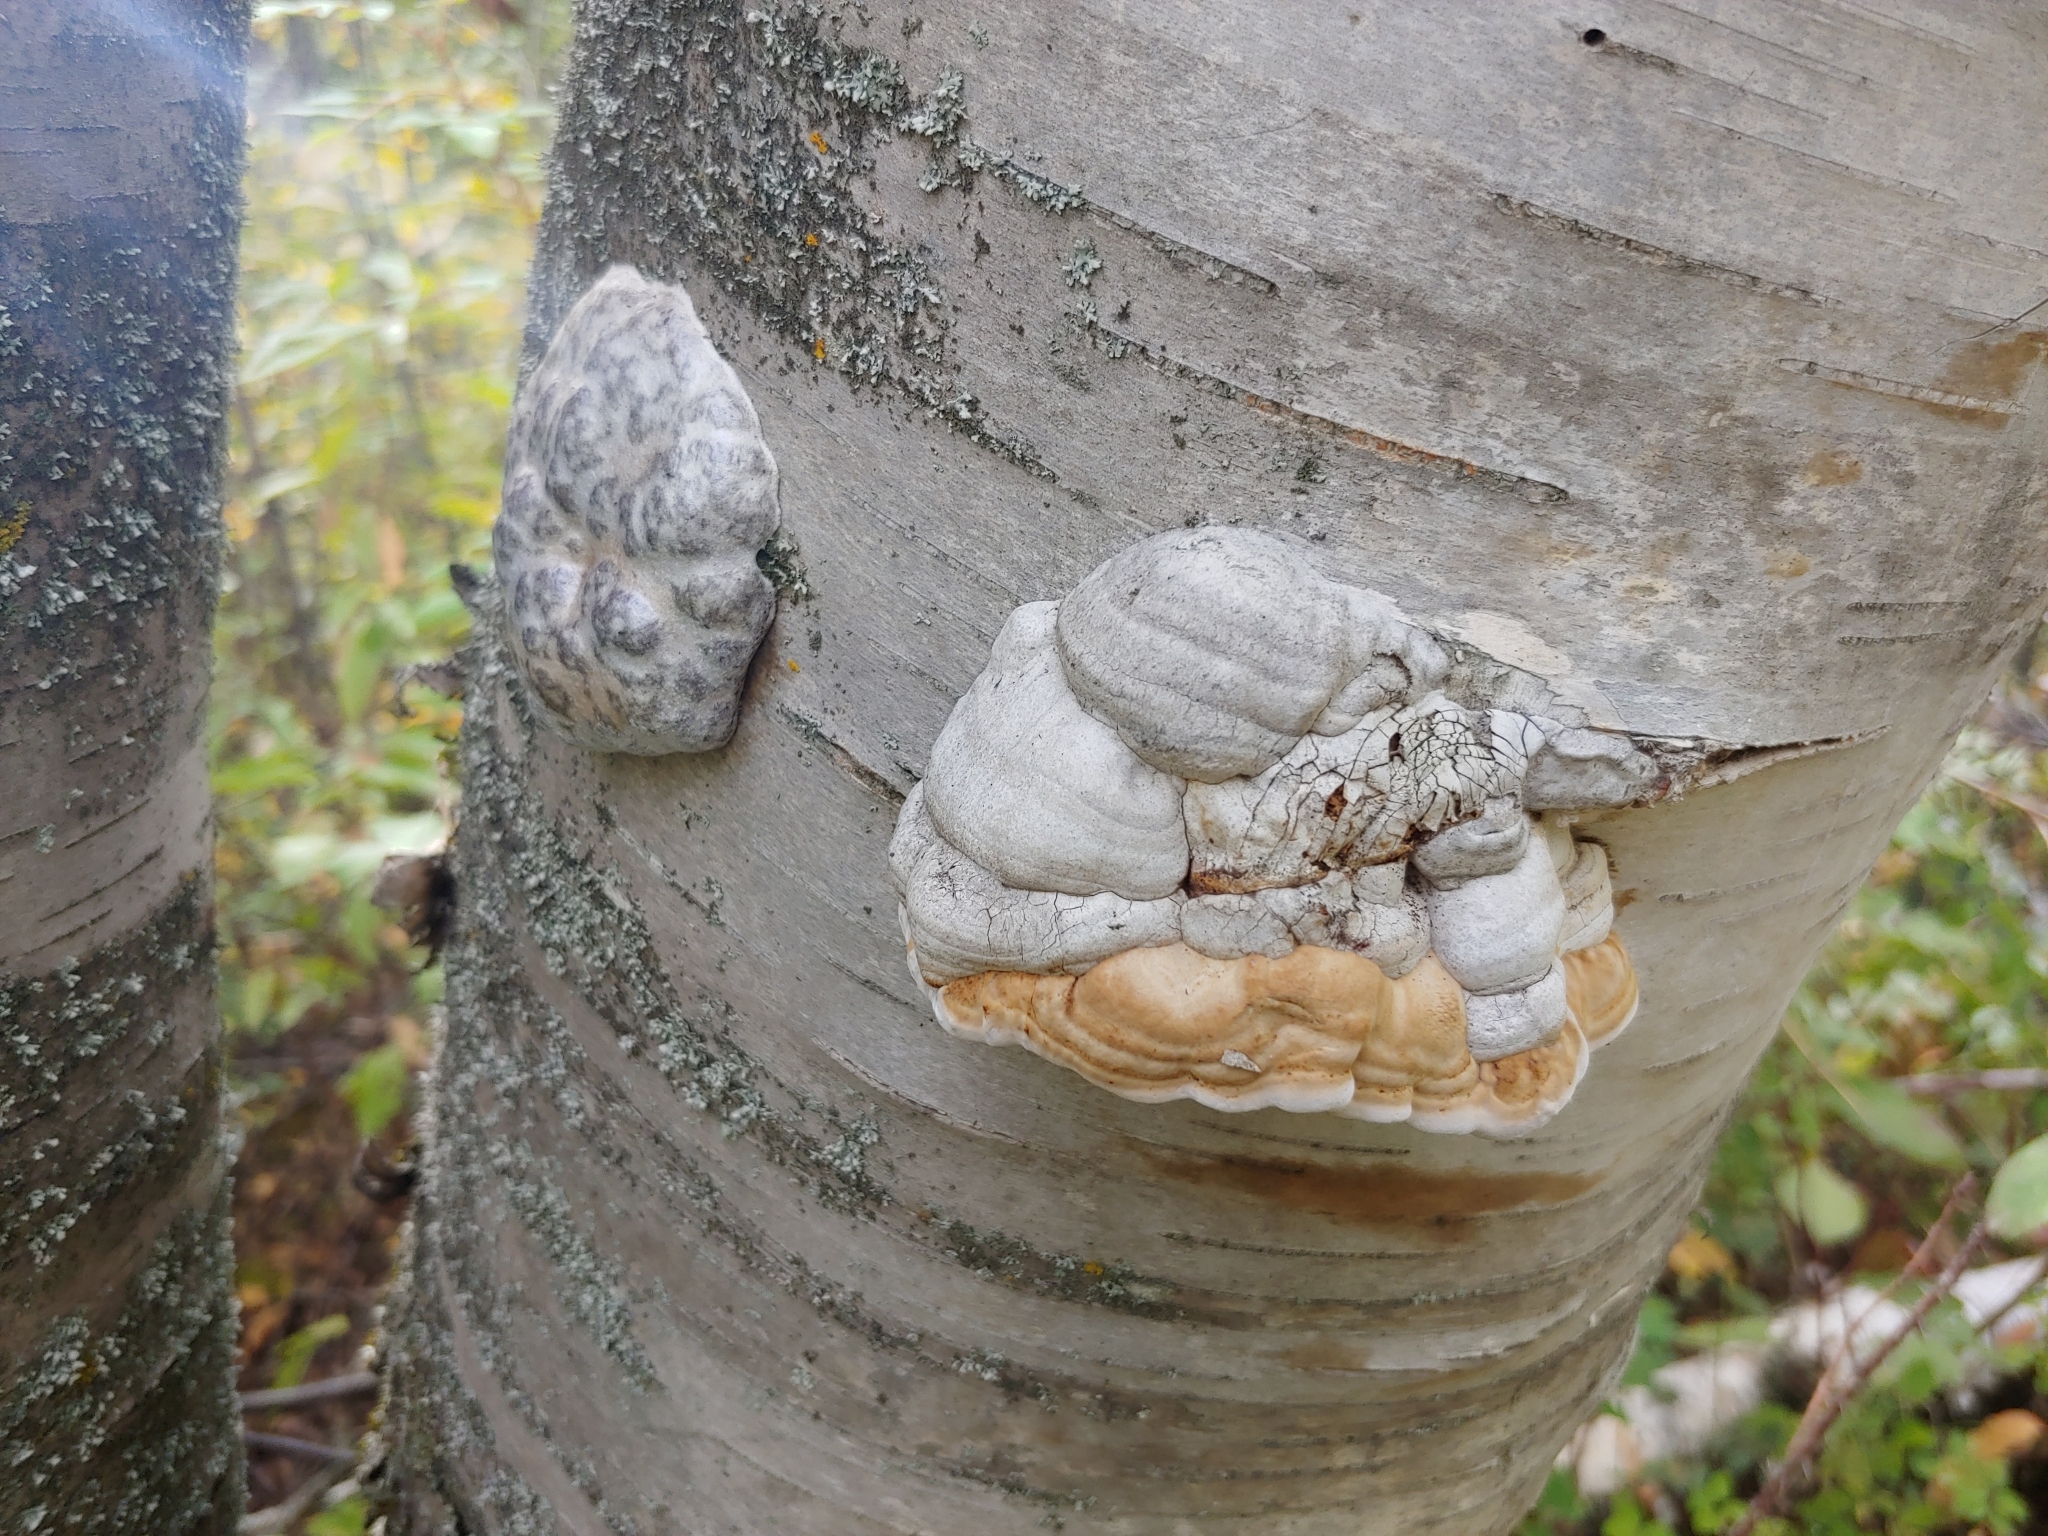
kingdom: Fungi
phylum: Basidiomycota
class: Agaricomycetes
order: Polyporales
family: Polyporaceae
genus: Fomes
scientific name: Fomes fomentarius
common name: Hoof fungus
